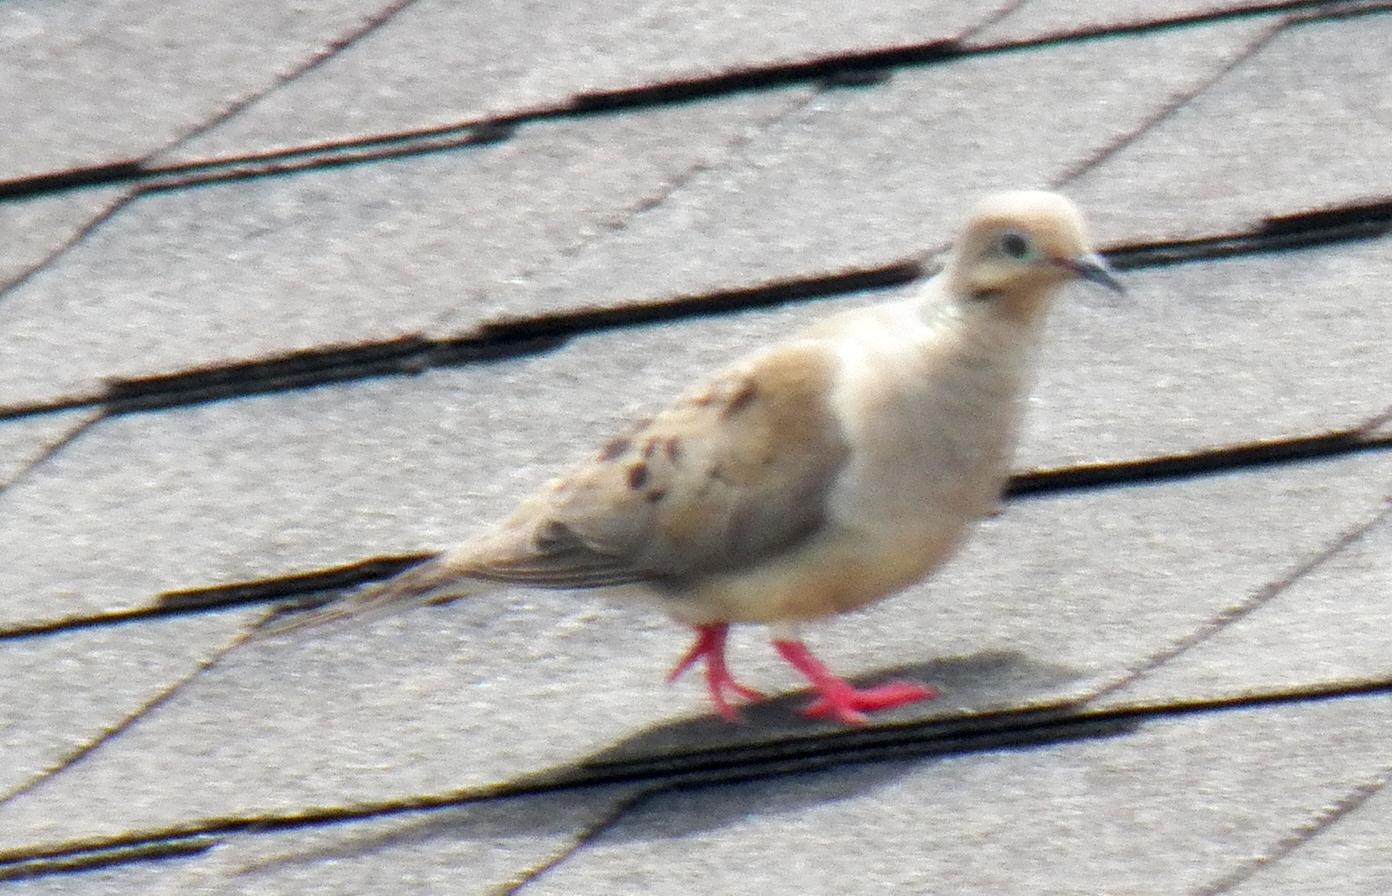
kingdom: Animalia
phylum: Chordata
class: Aves
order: Columbiformes
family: Columbidae
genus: Zenaida
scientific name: Zenaida macroura
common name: Mourning dove
